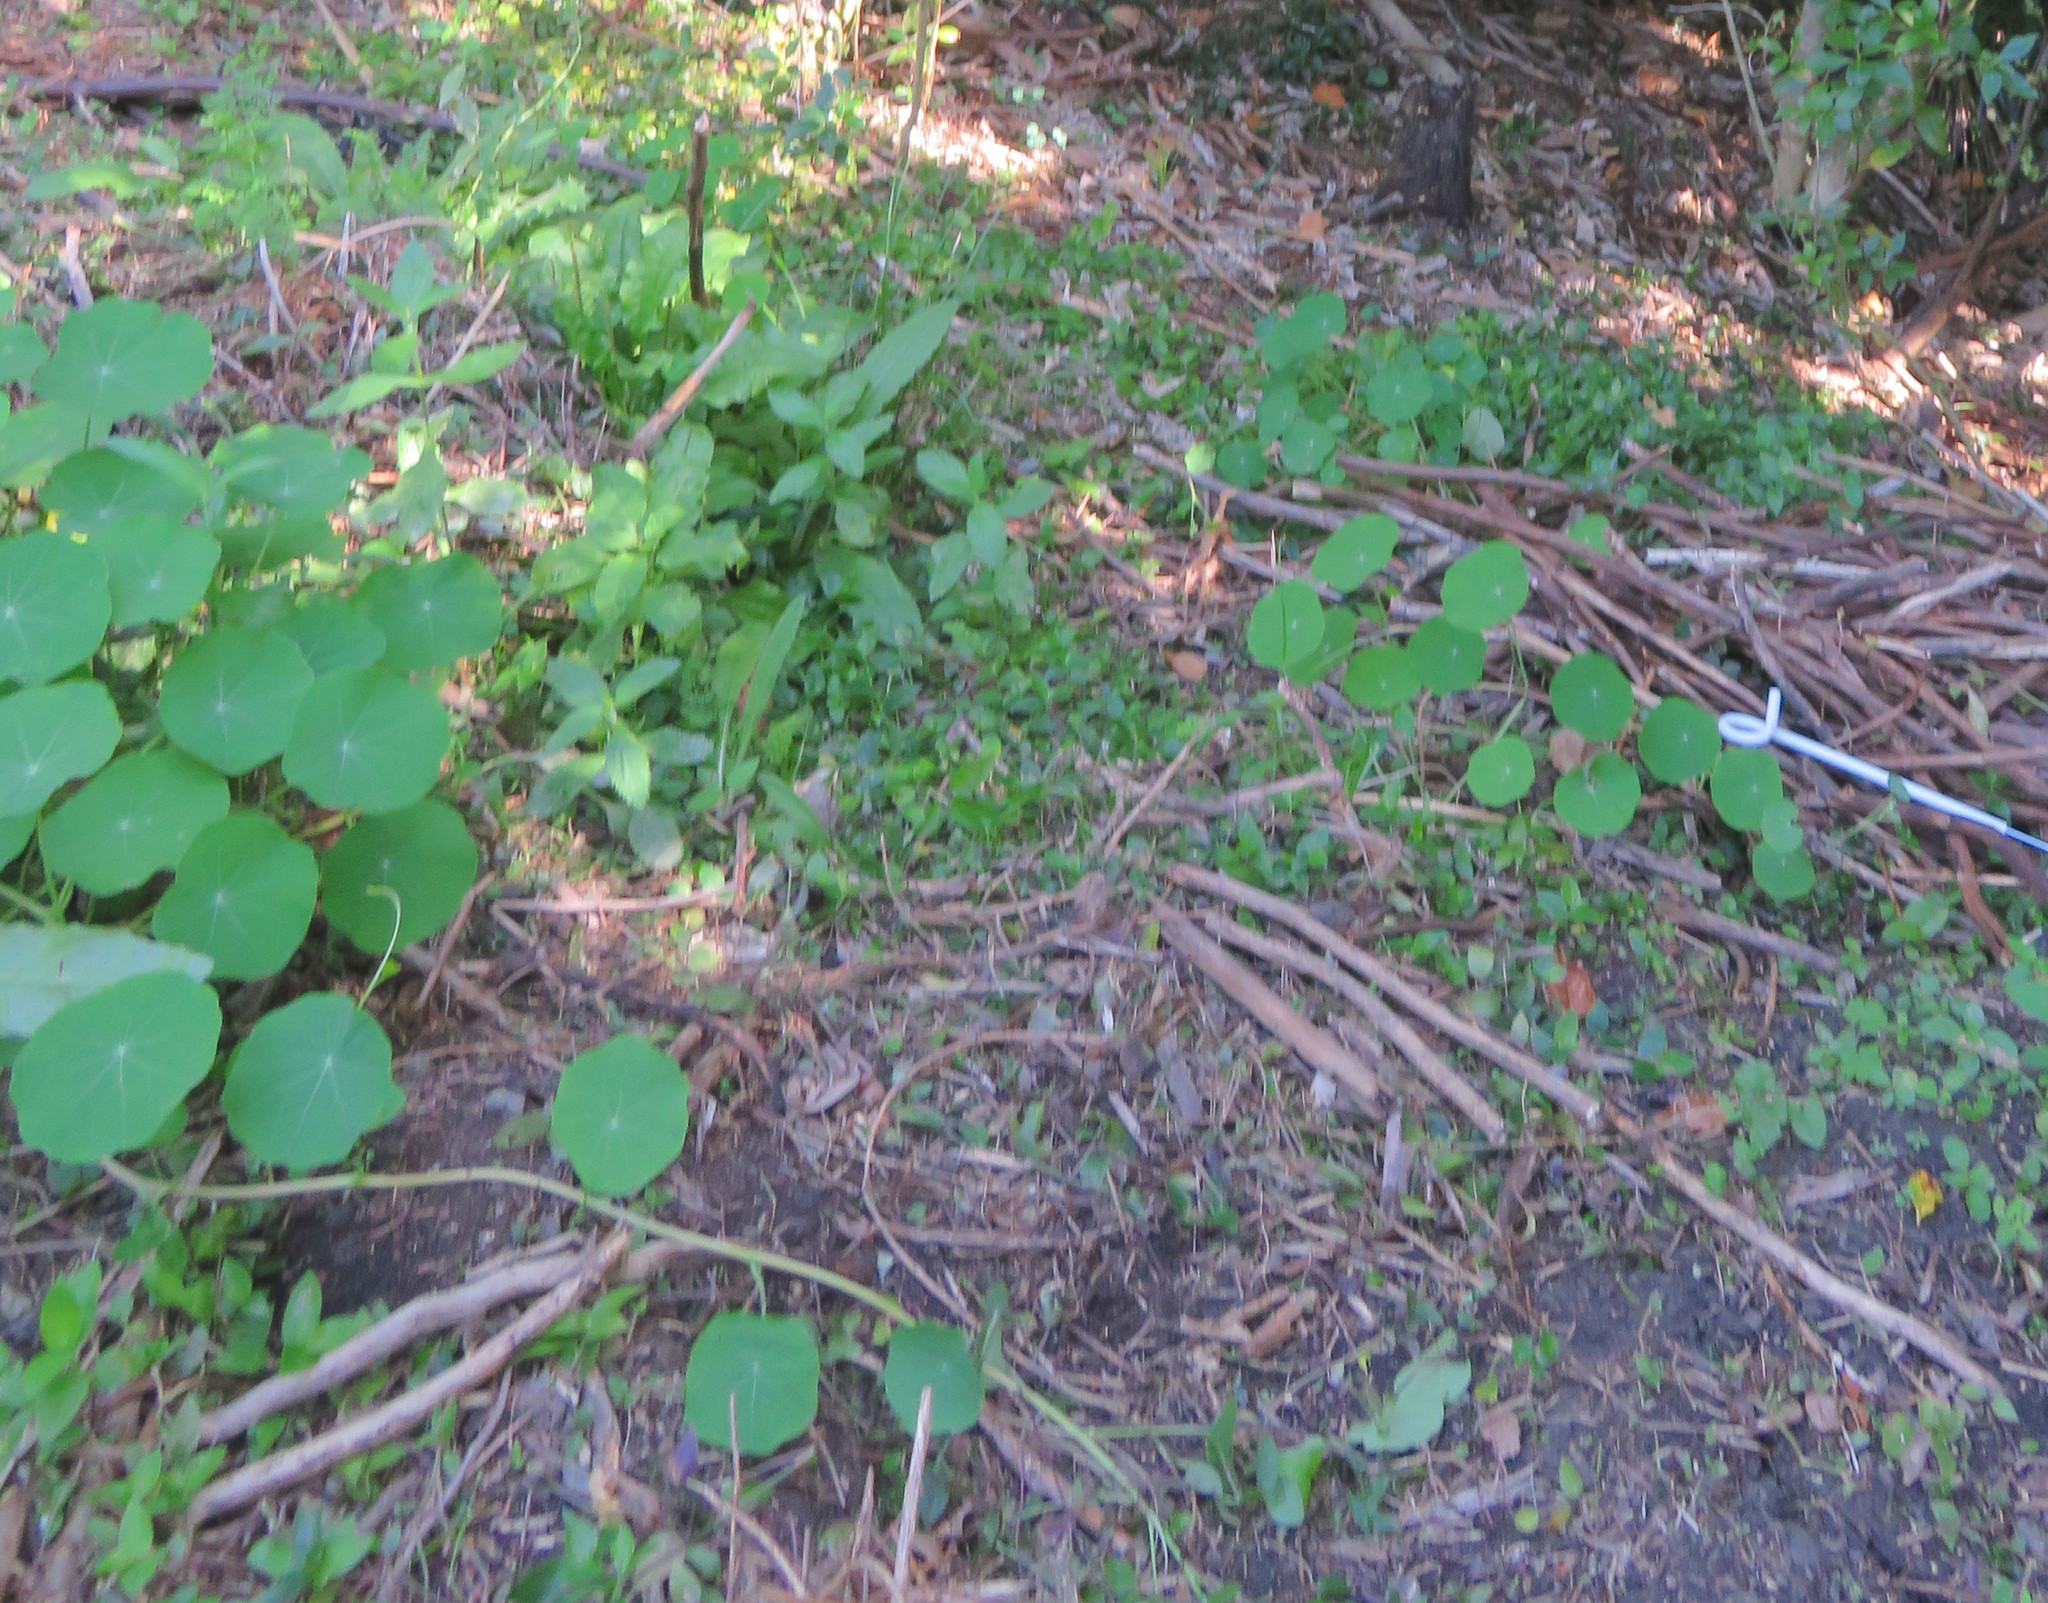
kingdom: Plantae
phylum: Tracheophyta
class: Liliopsida
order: Commelinales
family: Commelinaceae
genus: Tradescantia
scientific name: Tradescantia fluminensis
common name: Wandering-jew
